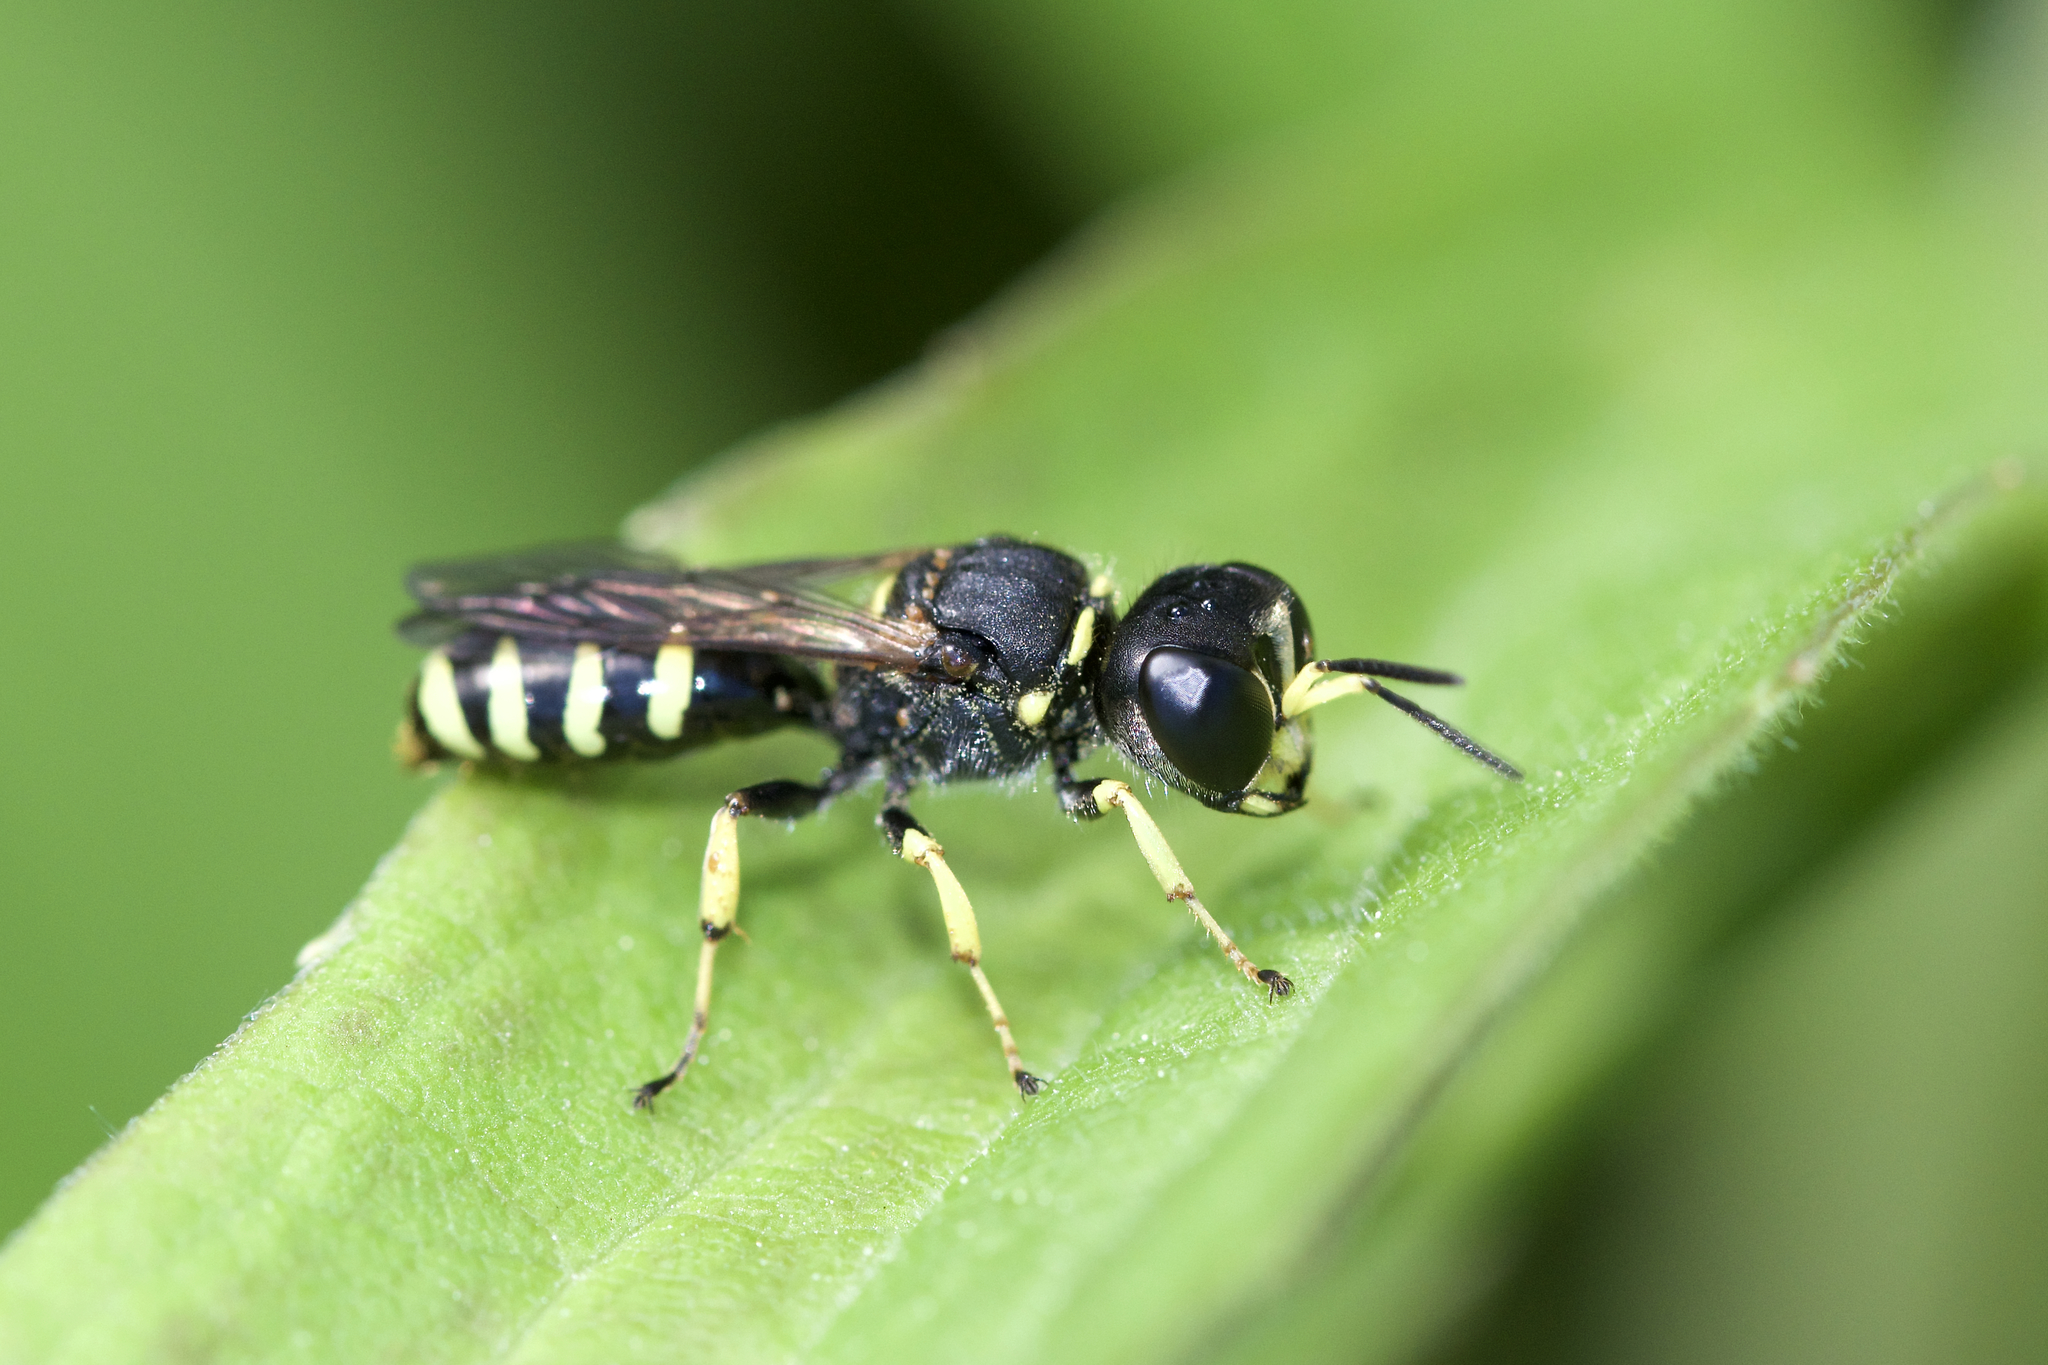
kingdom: Animalia
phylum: Arthropoda
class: Insecta
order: Hymenoptera
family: Crabronidae
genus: Ectemnius
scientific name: Ectemnius
